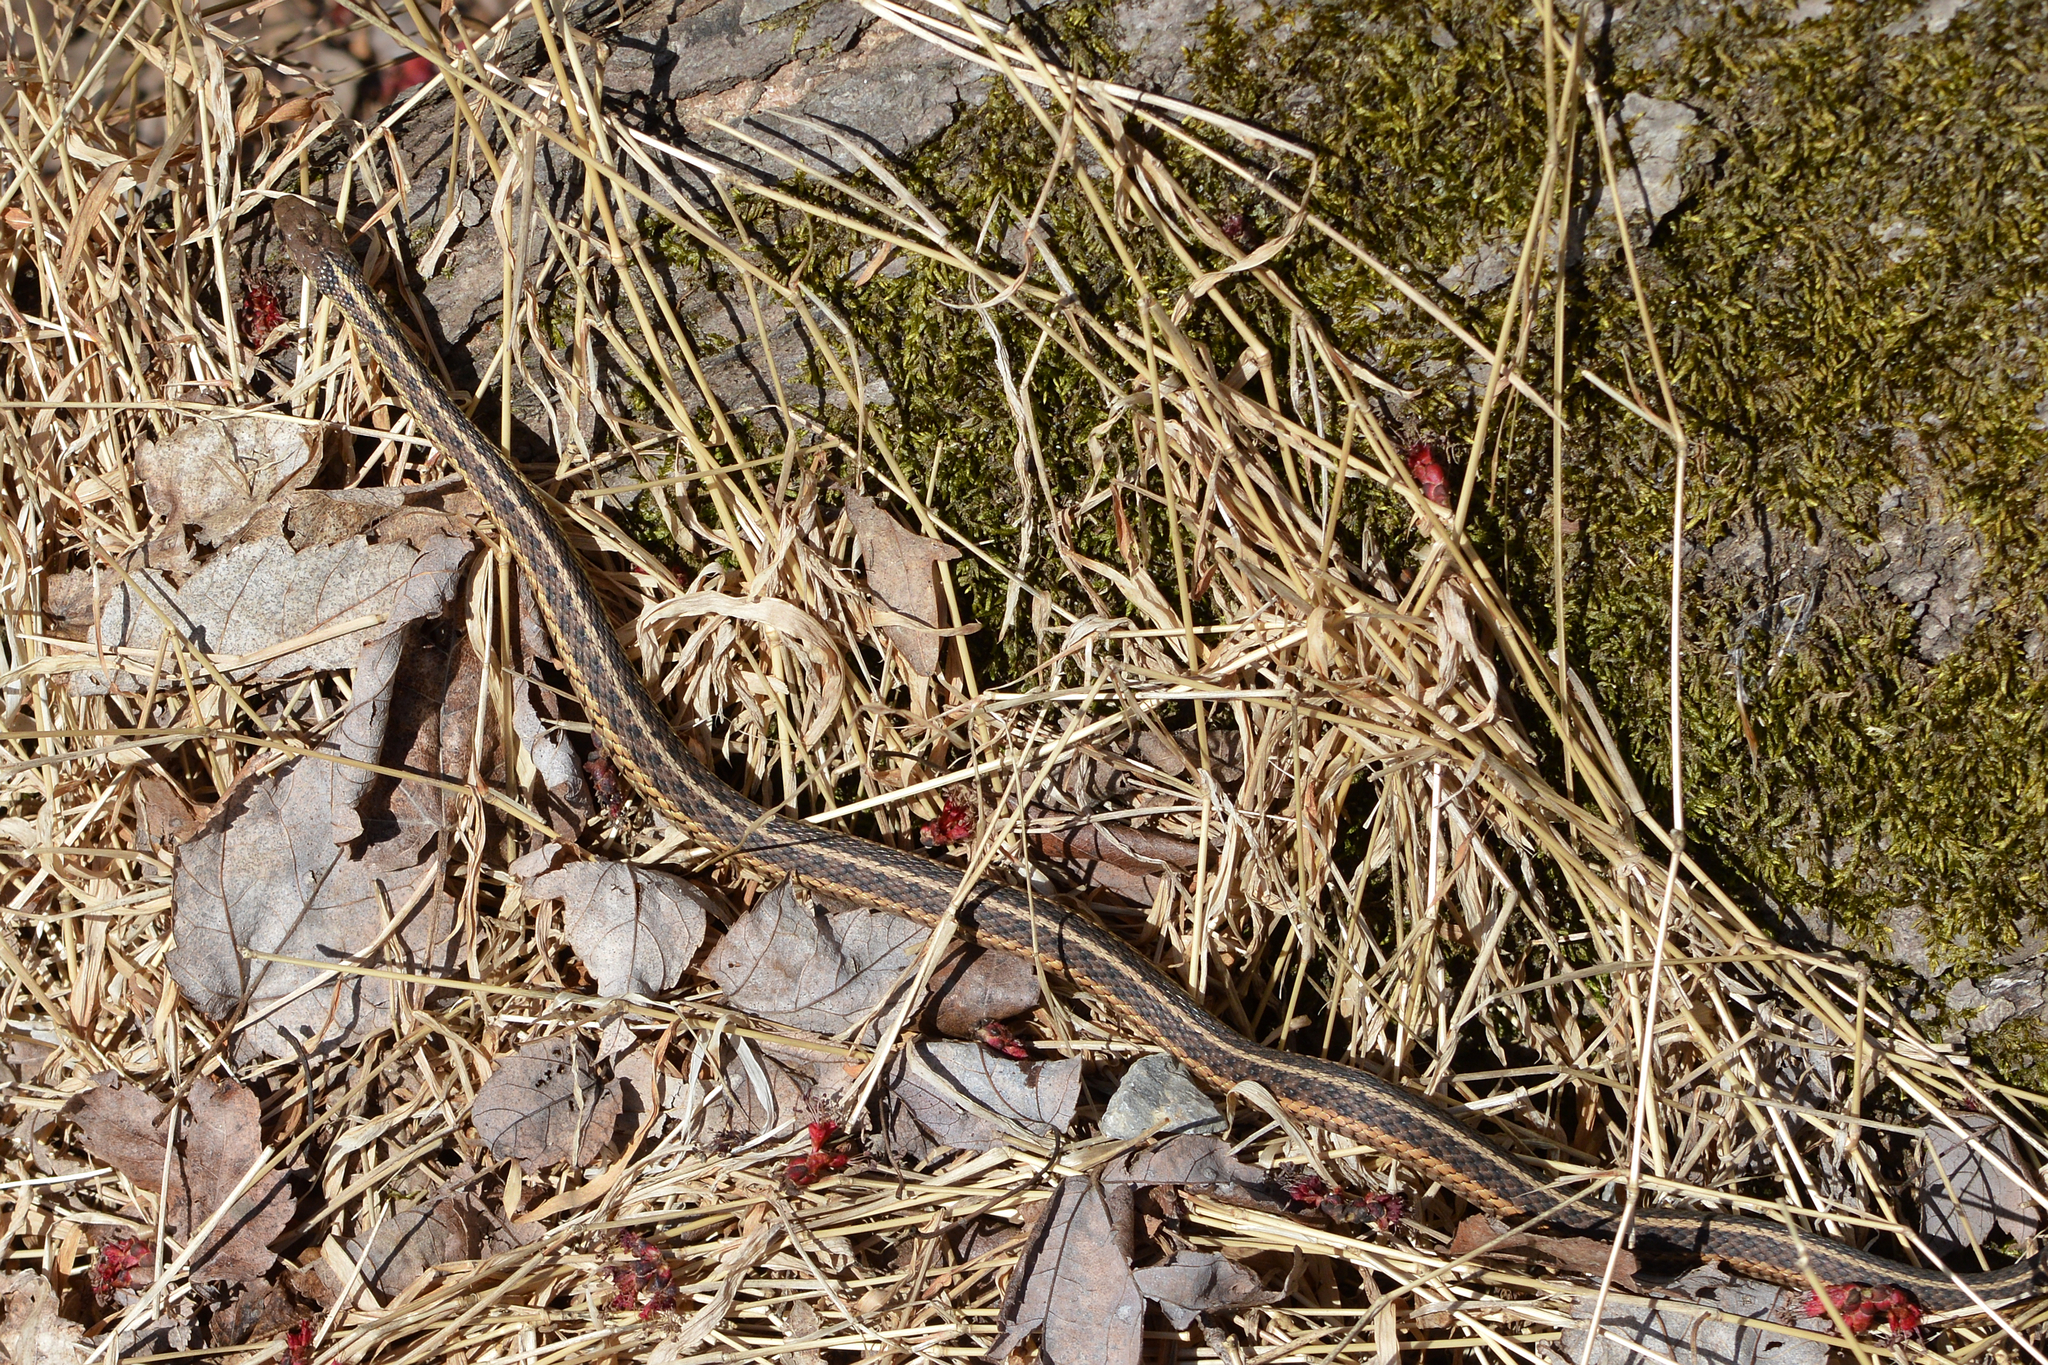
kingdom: Animalia
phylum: Chordata
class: Squamata
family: Colubridae
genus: Thamnophis
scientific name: Thamnophis sirtalis
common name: Common garter snake
